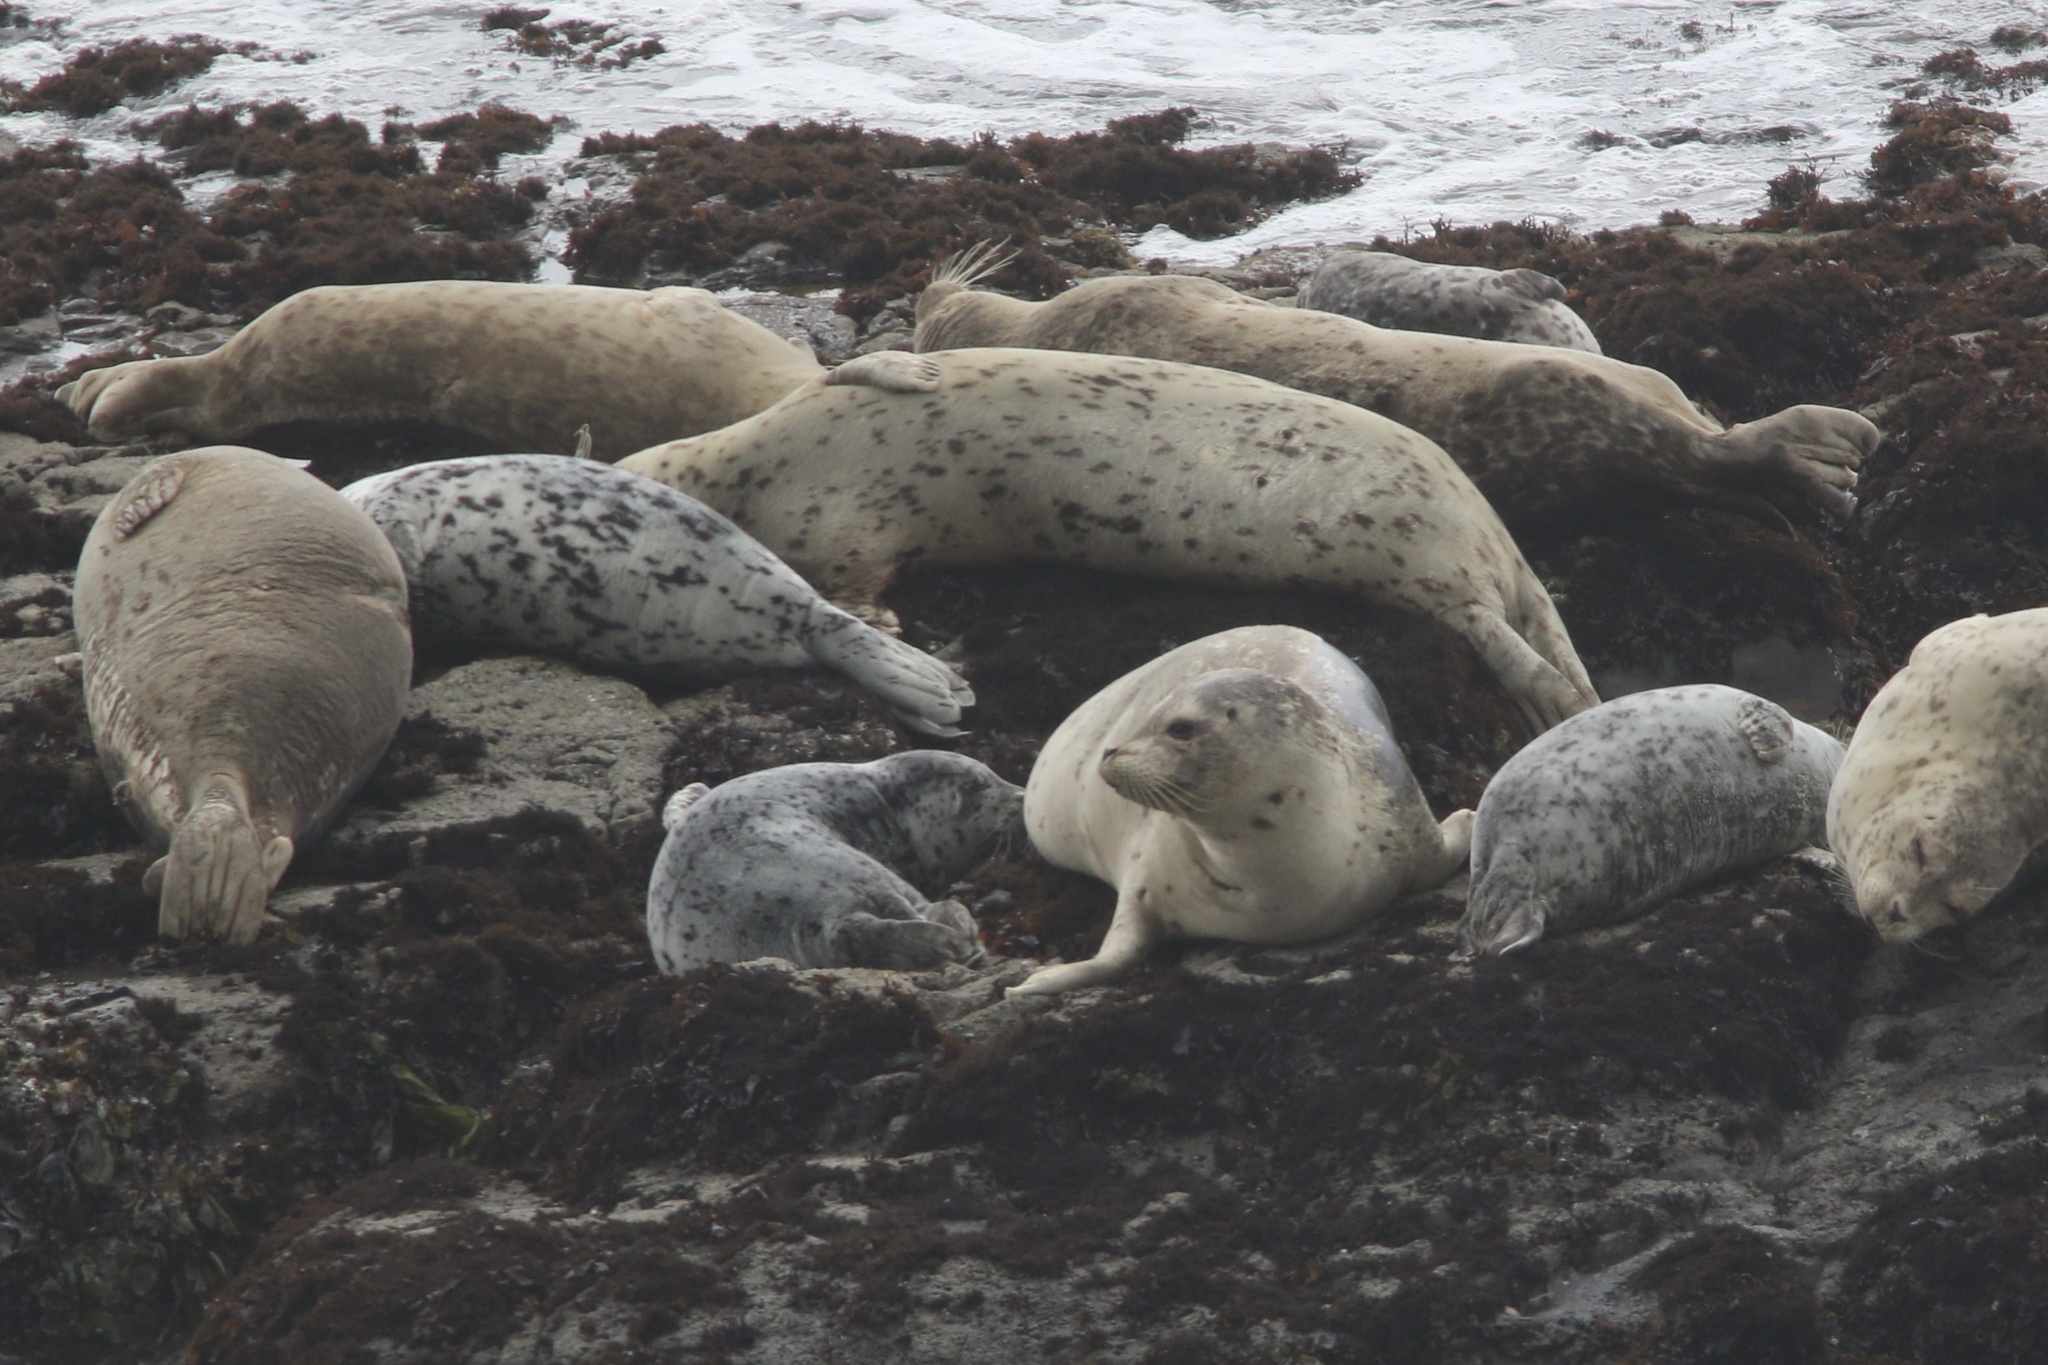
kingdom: Animalia
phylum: Chordata
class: Mammalia
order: Carnivora
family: Phocidae
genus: Phoca
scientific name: Phoca vitulina
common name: Harbor seal
